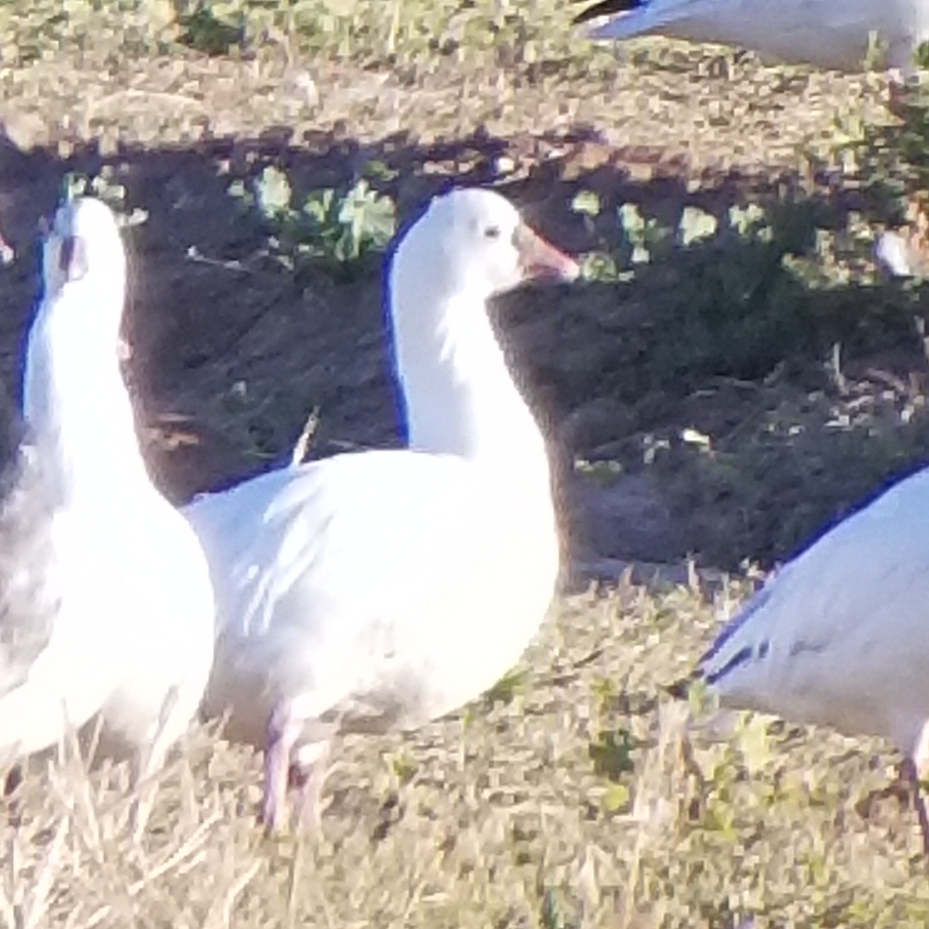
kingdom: Animalia
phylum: Chordata
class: Aves
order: Anseriformes
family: Anatidae
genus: Anser
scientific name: Anser rossii
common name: Ross's goose
